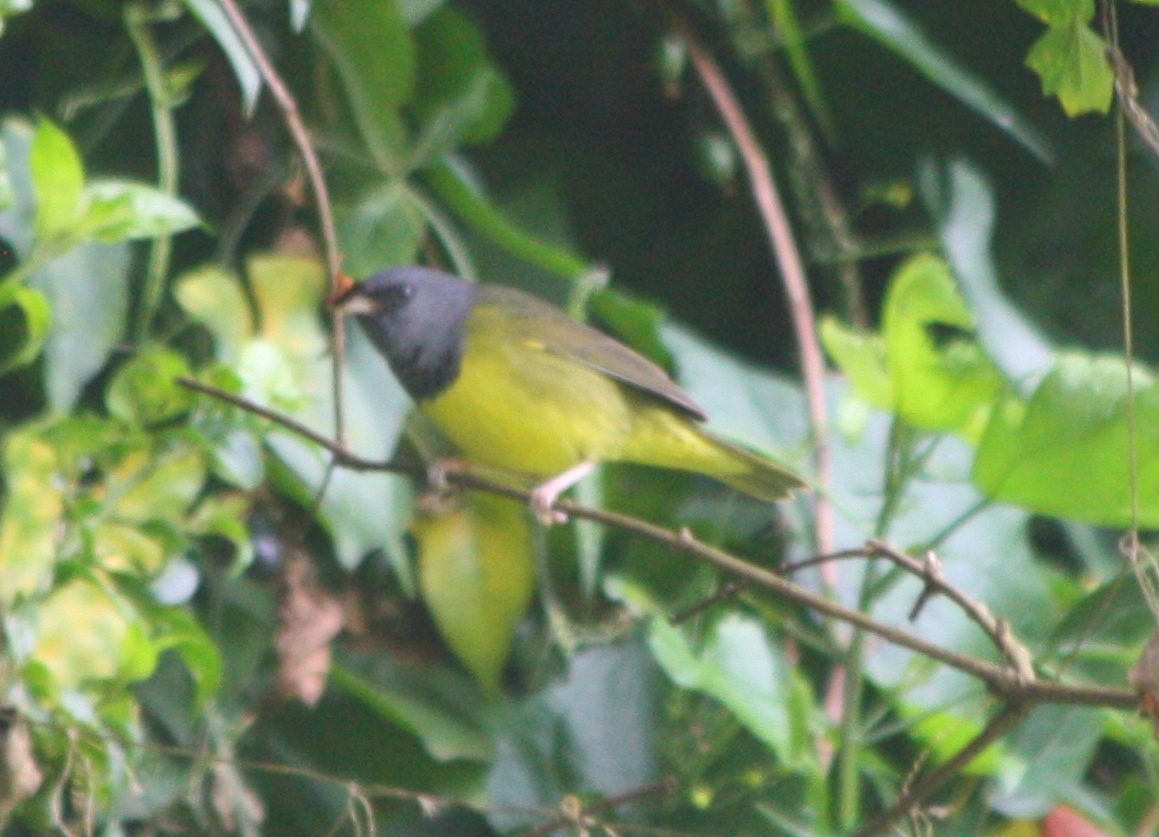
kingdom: Animalia
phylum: Chordata
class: Aves
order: Passeriformes
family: Parulidae
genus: Geothlypis
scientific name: Geothlypis philadelphia
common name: Mourning warbler
